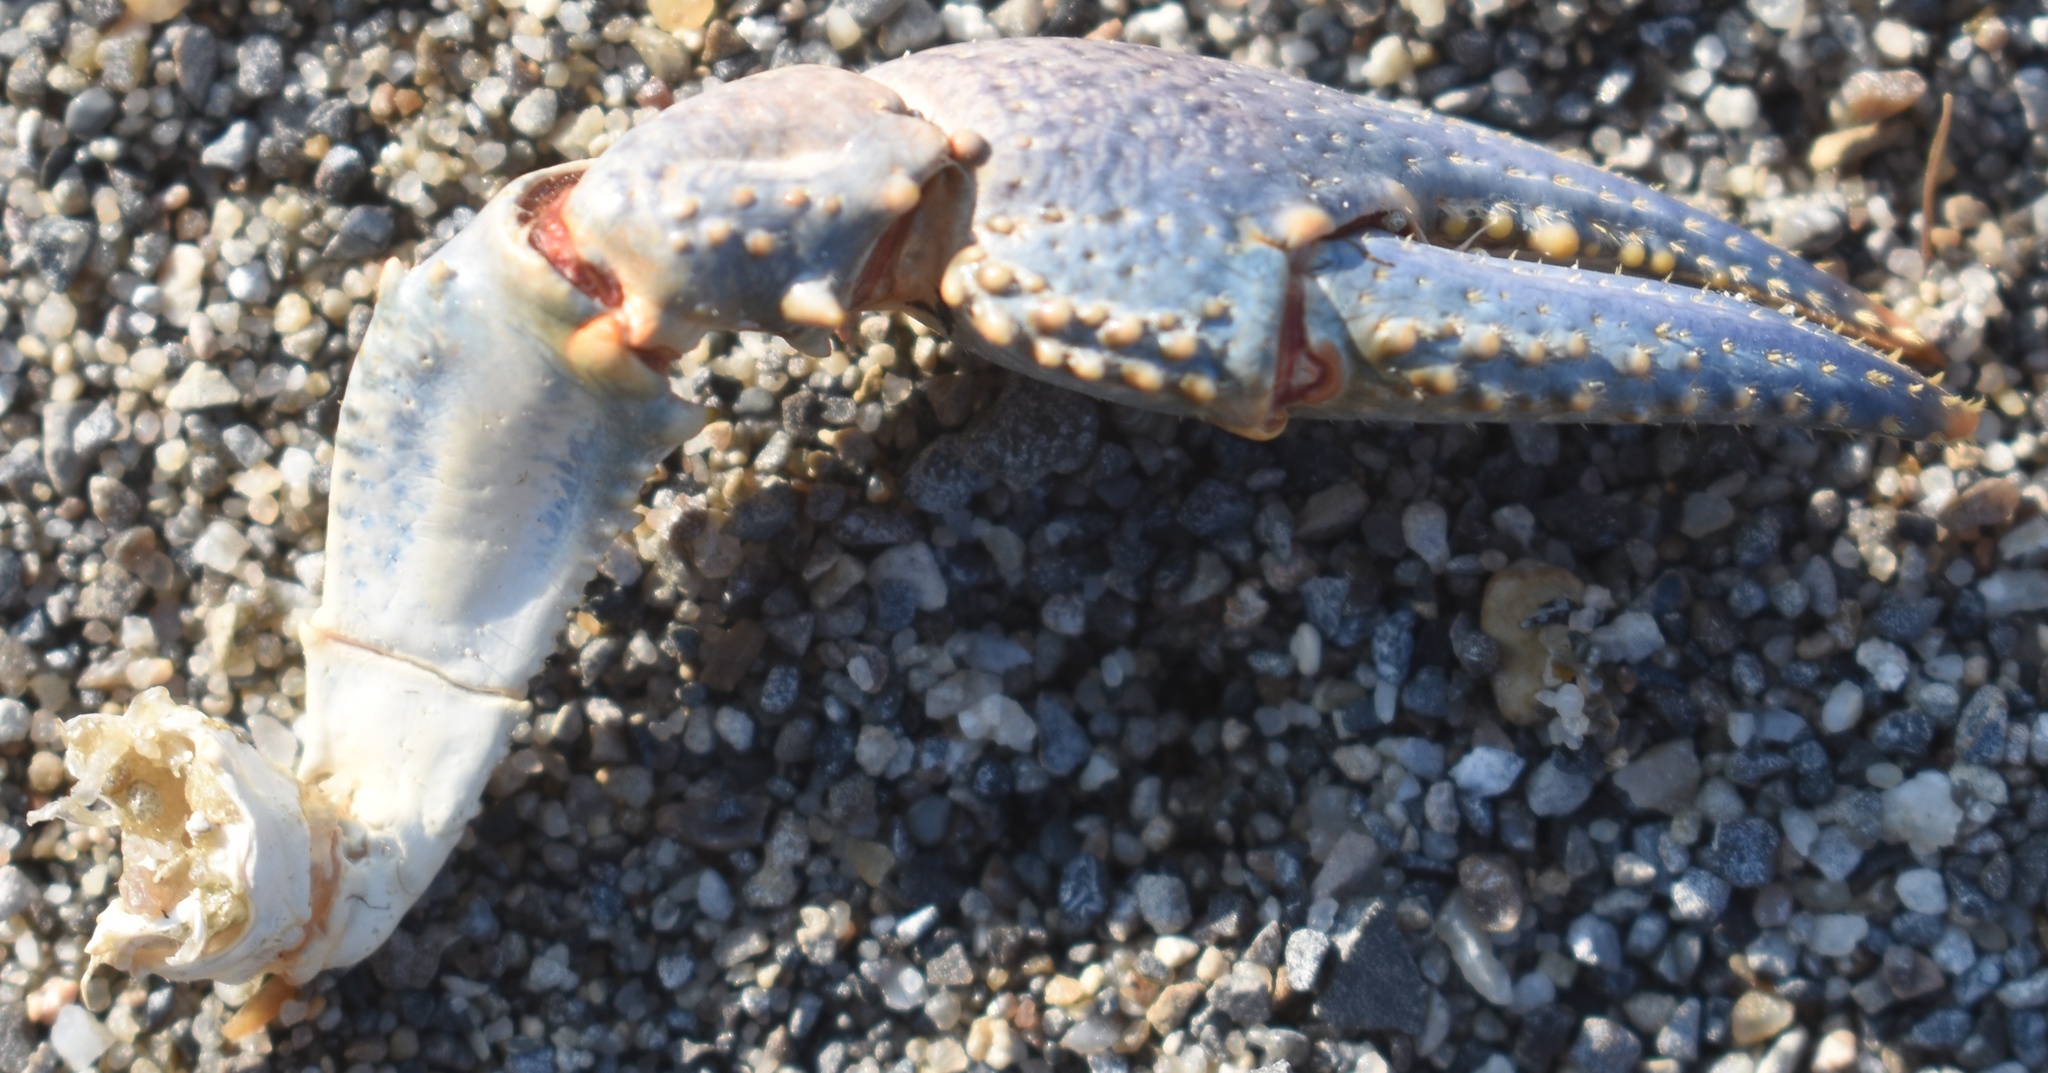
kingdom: Animalia
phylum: Arthropoda
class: Malacostraca
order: Decapoda
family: Cambaridae
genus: Faxonius
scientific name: Faxonius virilis
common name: Virile crayfish
